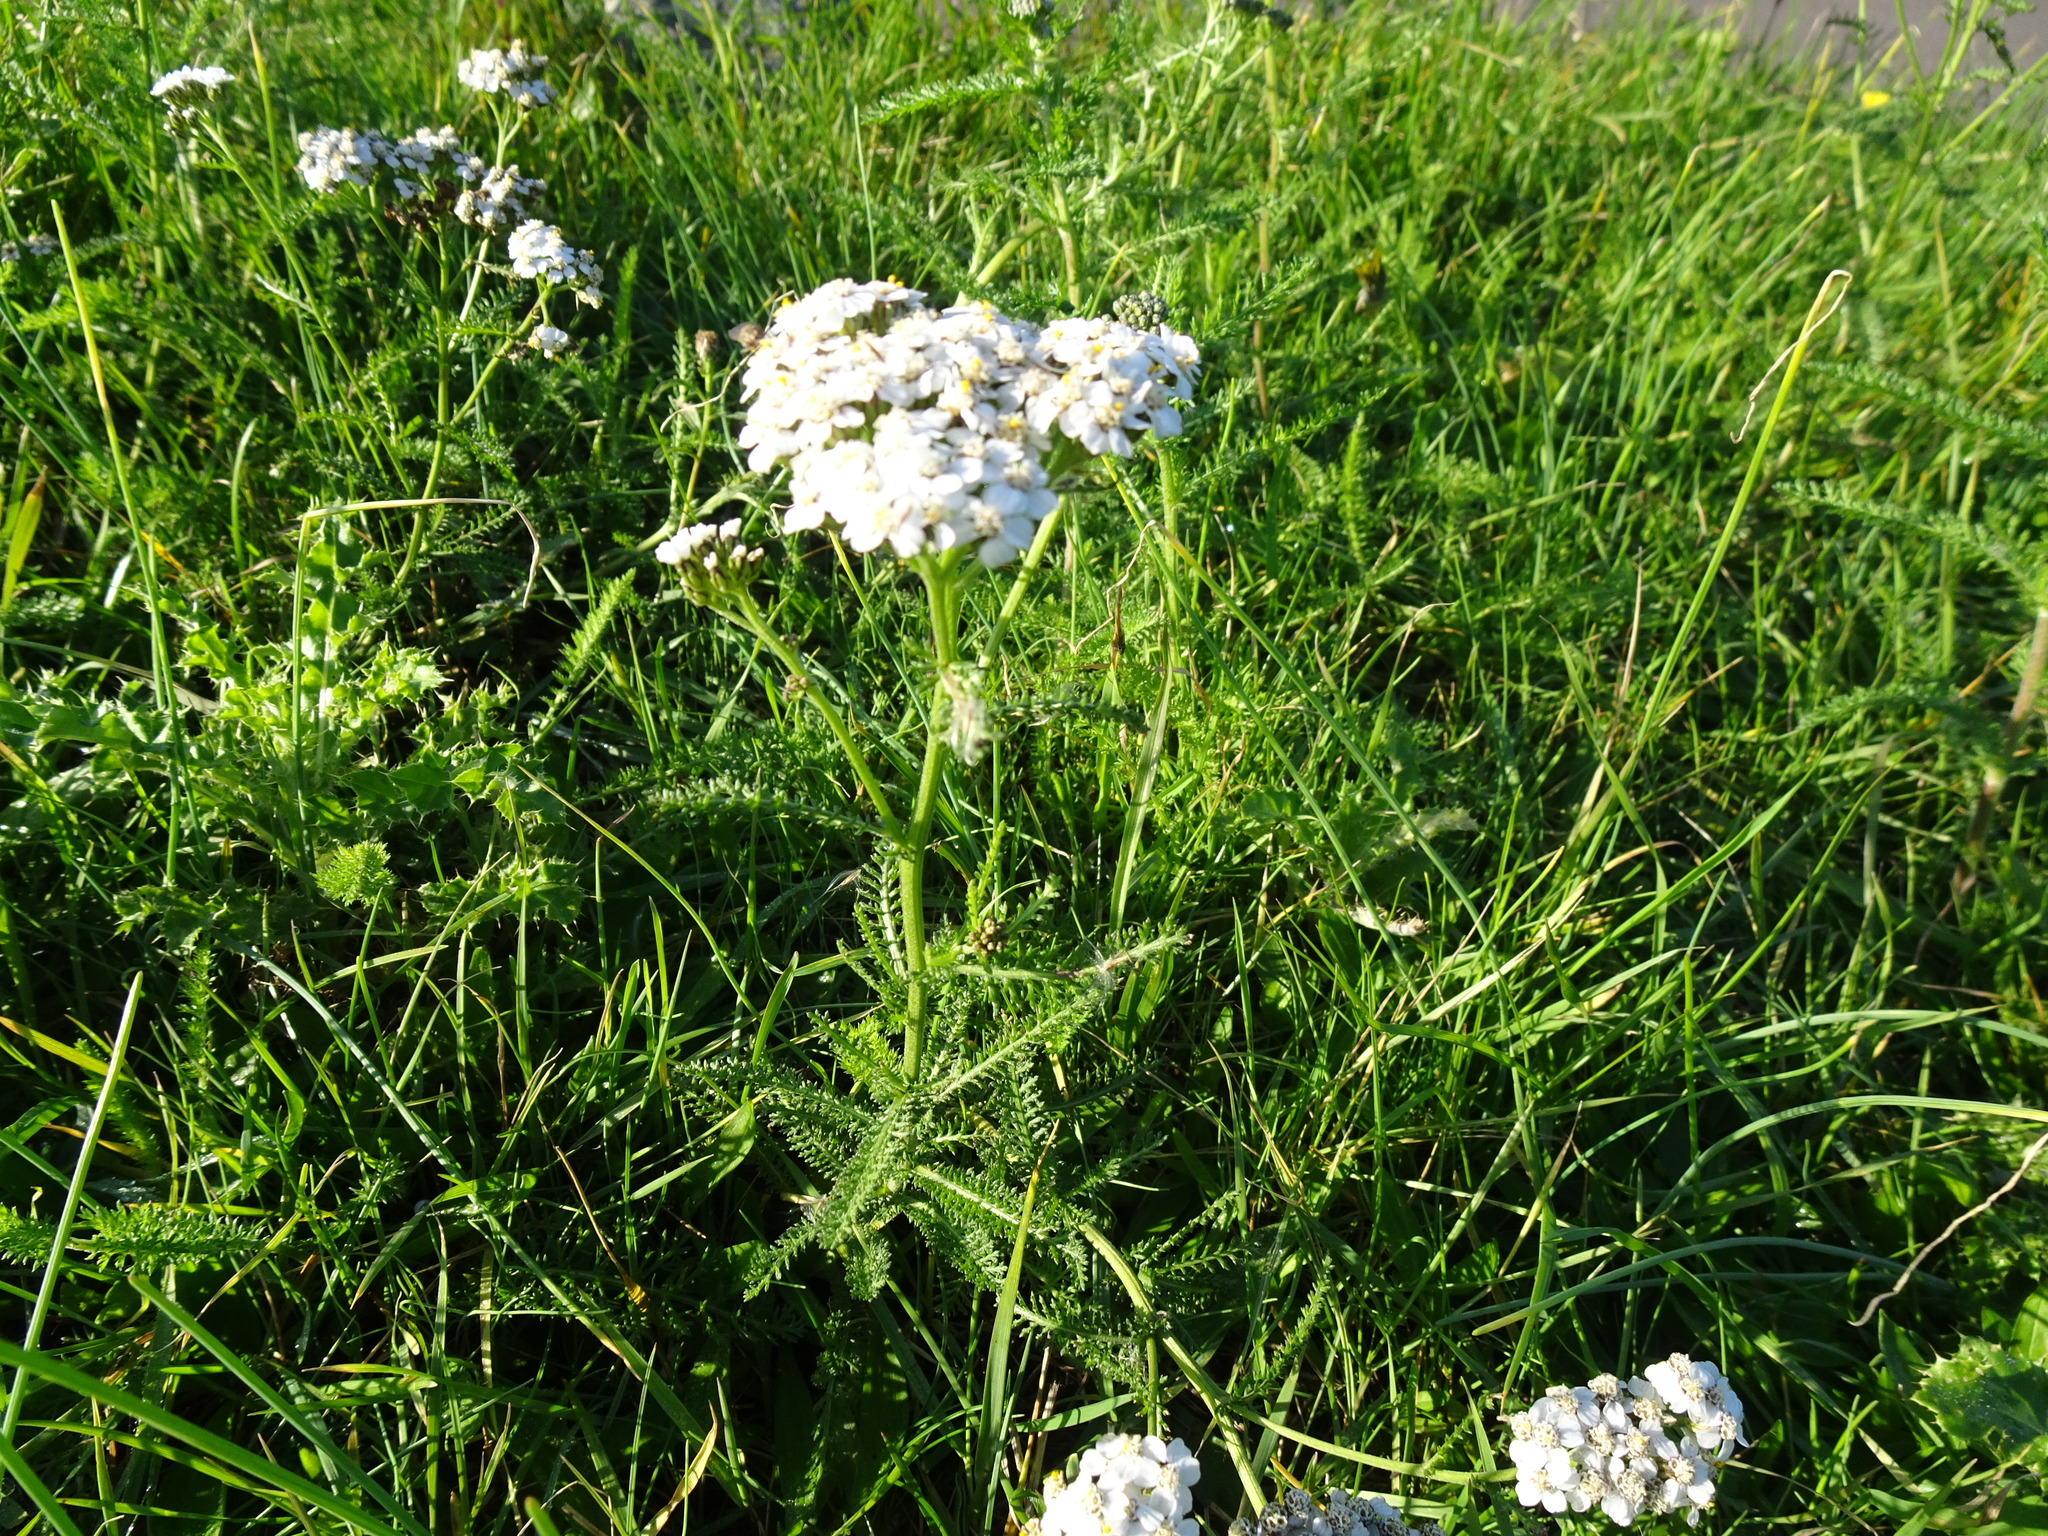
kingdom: Plantae
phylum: Tracheophyta
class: Magnoliopsida
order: Asterales
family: Asteraceae
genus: Achillea
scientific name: Achillea millefolium
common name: Yarrow
